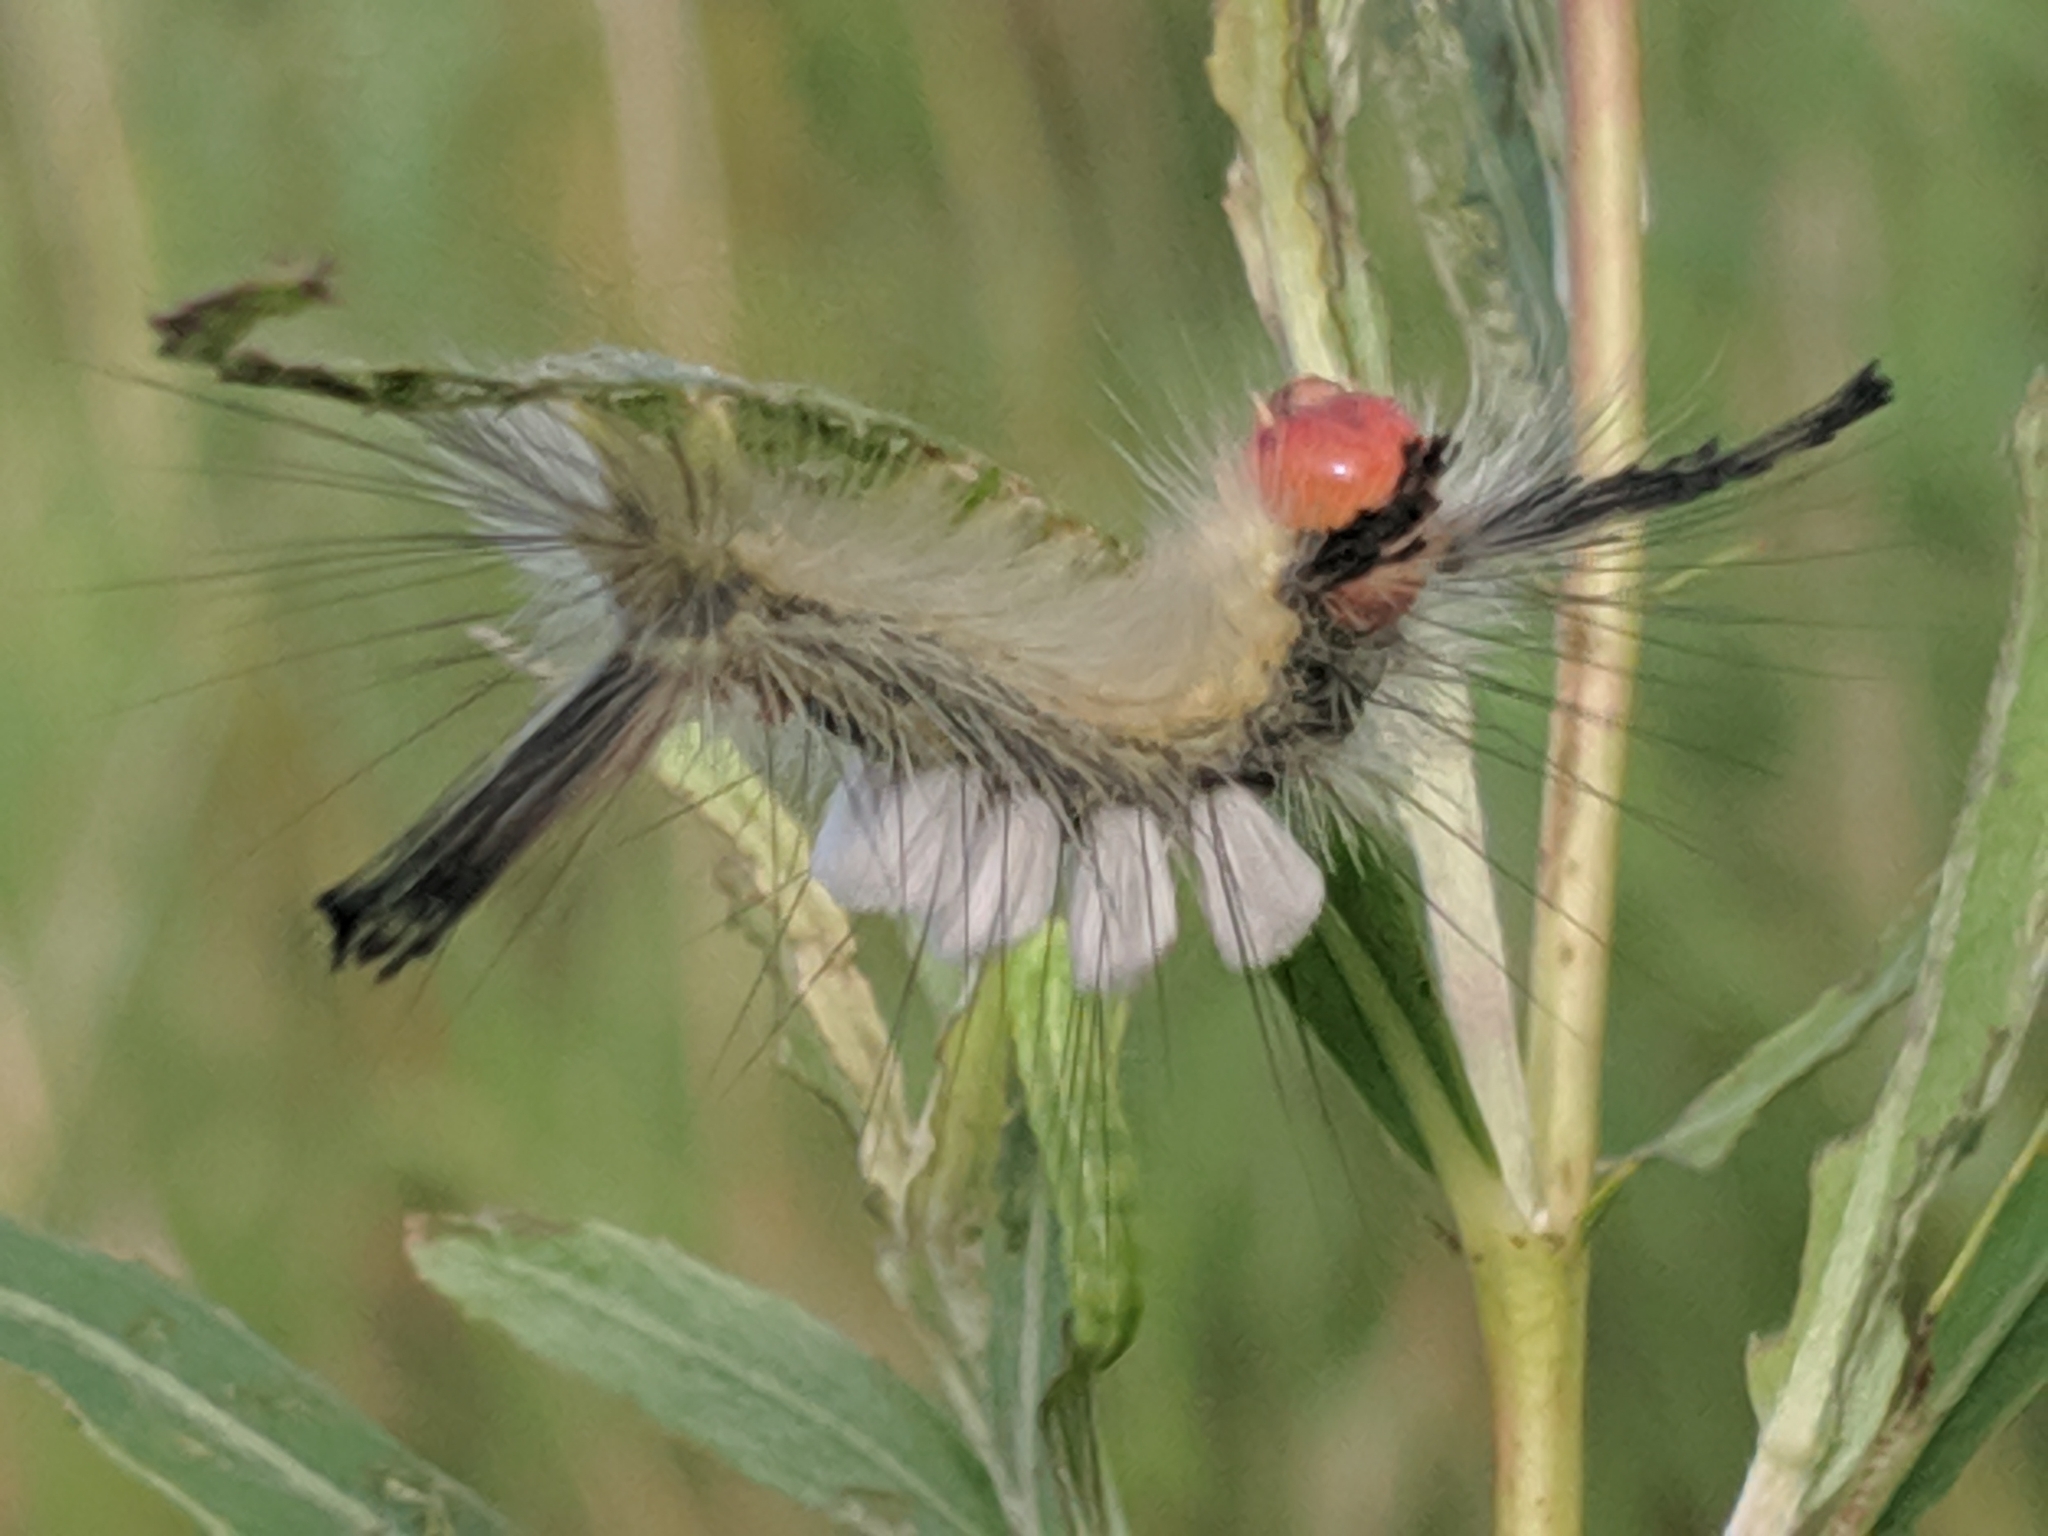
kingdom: Animalia
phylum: Arthropoda
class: Insecta
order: Lepidoptera
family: Erebidae
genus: Orgyia
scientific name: Orgyia leucostigma
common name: White-marked tussock moth
